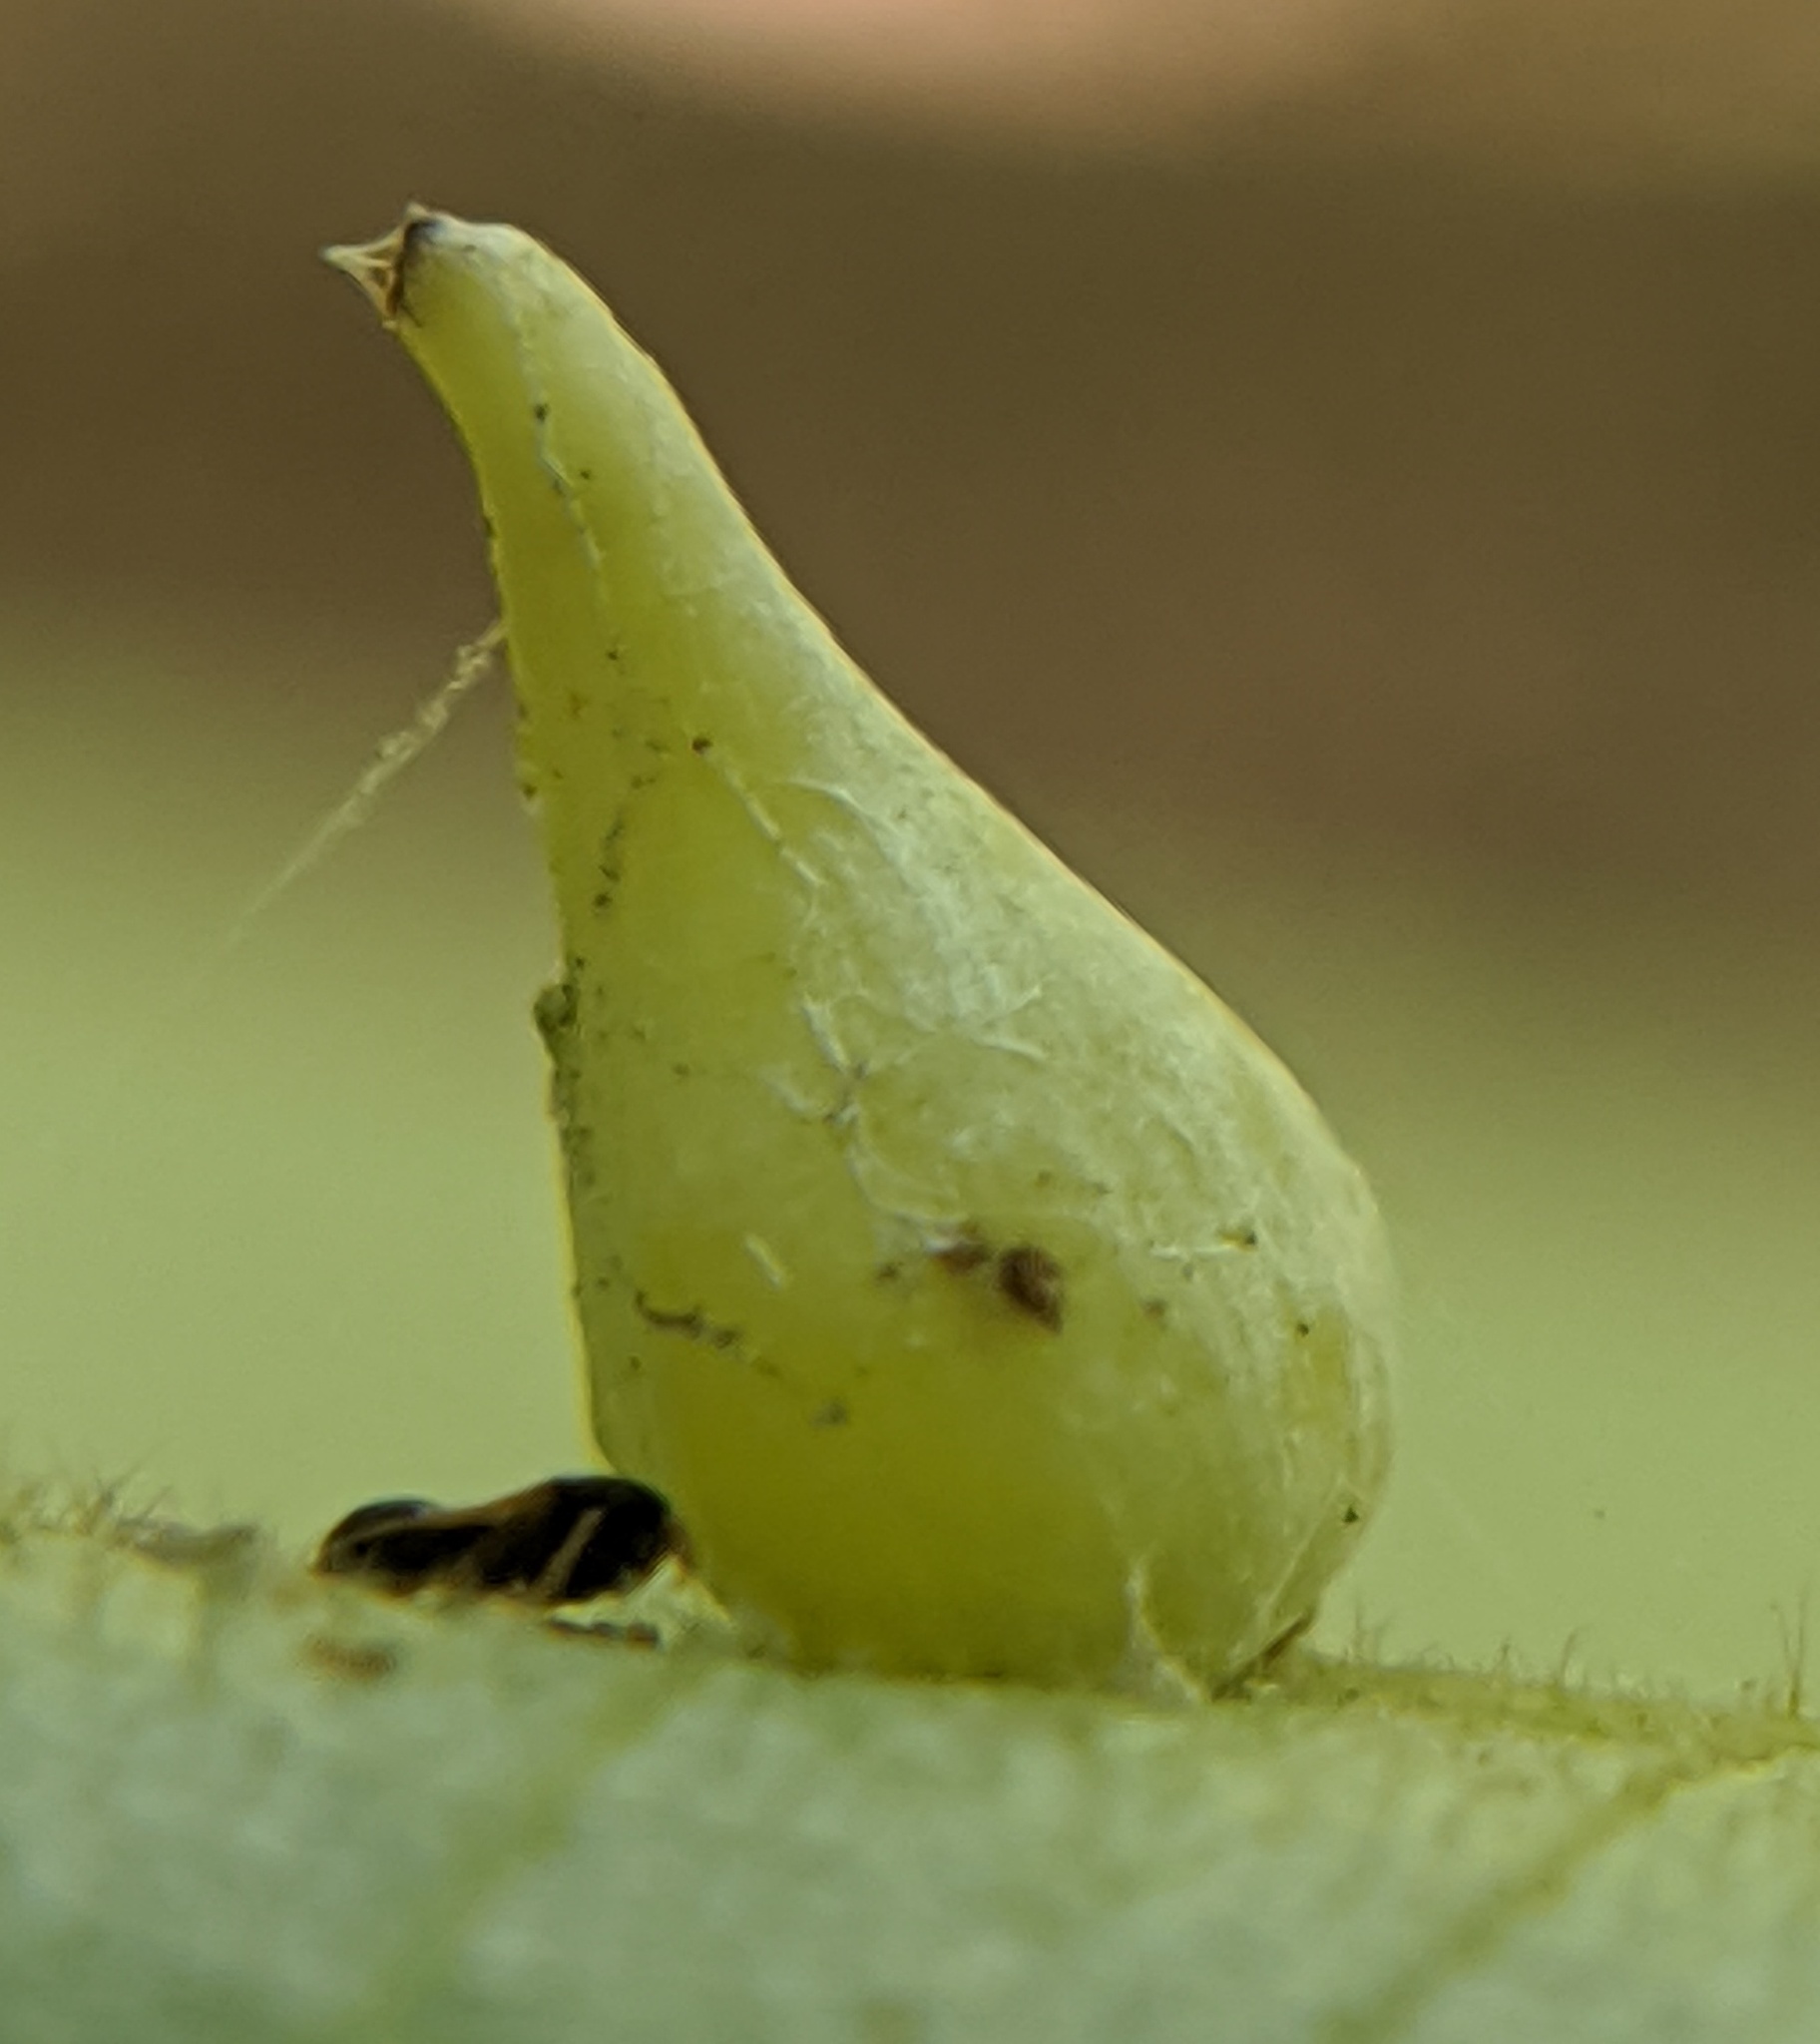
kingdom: Animalia
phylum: Arthropoda
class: Insecta
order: Diptera
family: Cecidomyiidae
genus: Caryomyia
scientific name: Caryomyia caryaecola
